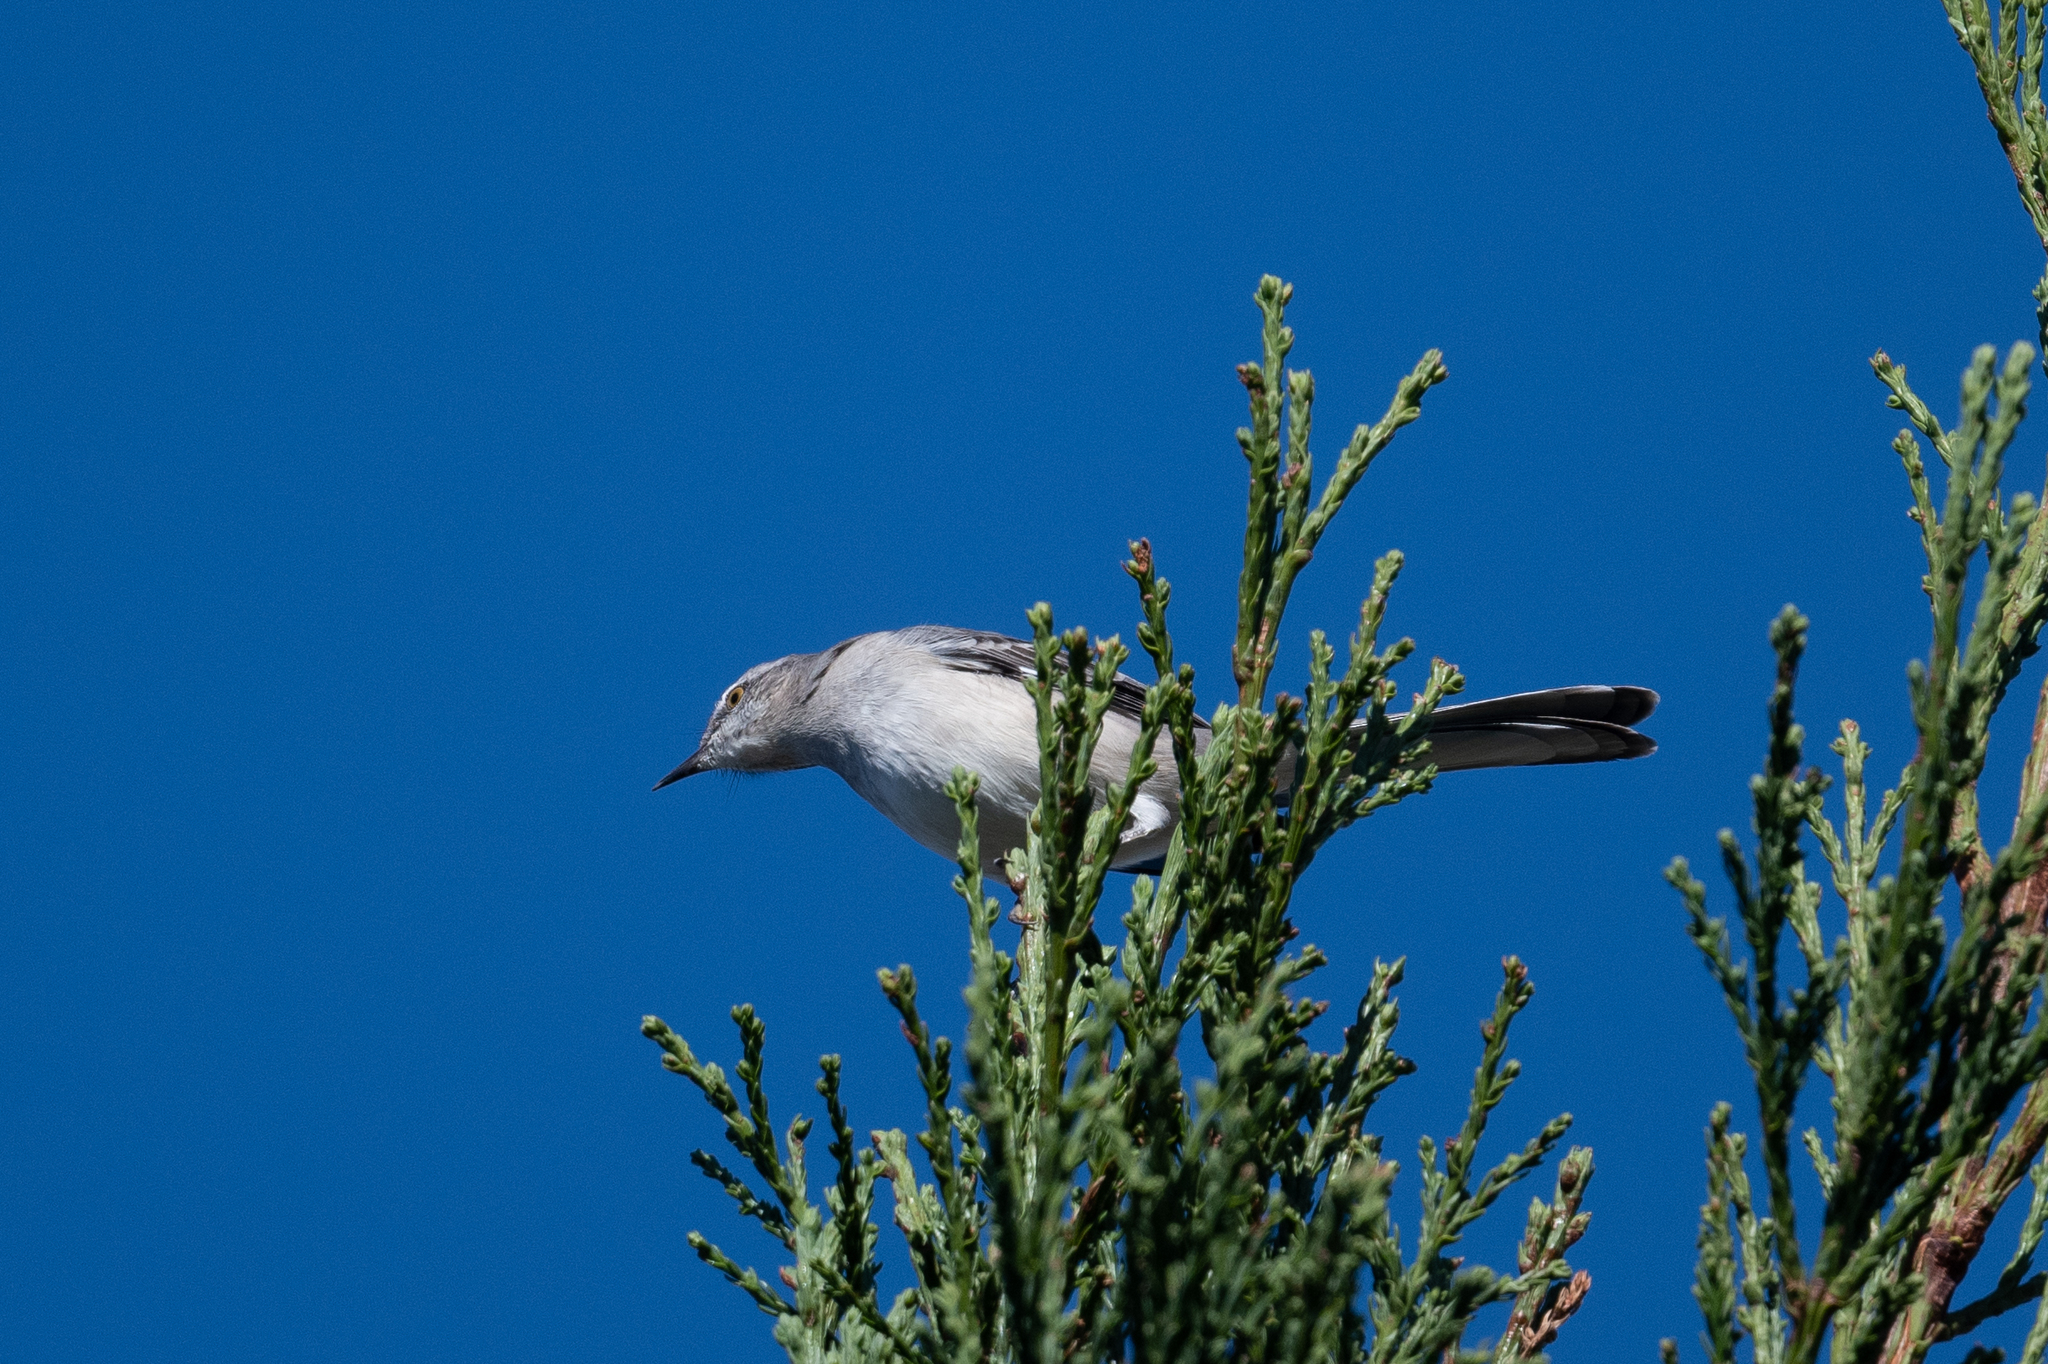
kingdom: Animalia
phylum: Chordata
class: Aves
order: Passeriformes
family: Mimidae
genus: Mimus
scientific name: Mimus polyglottos
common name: Northern mockingbird
